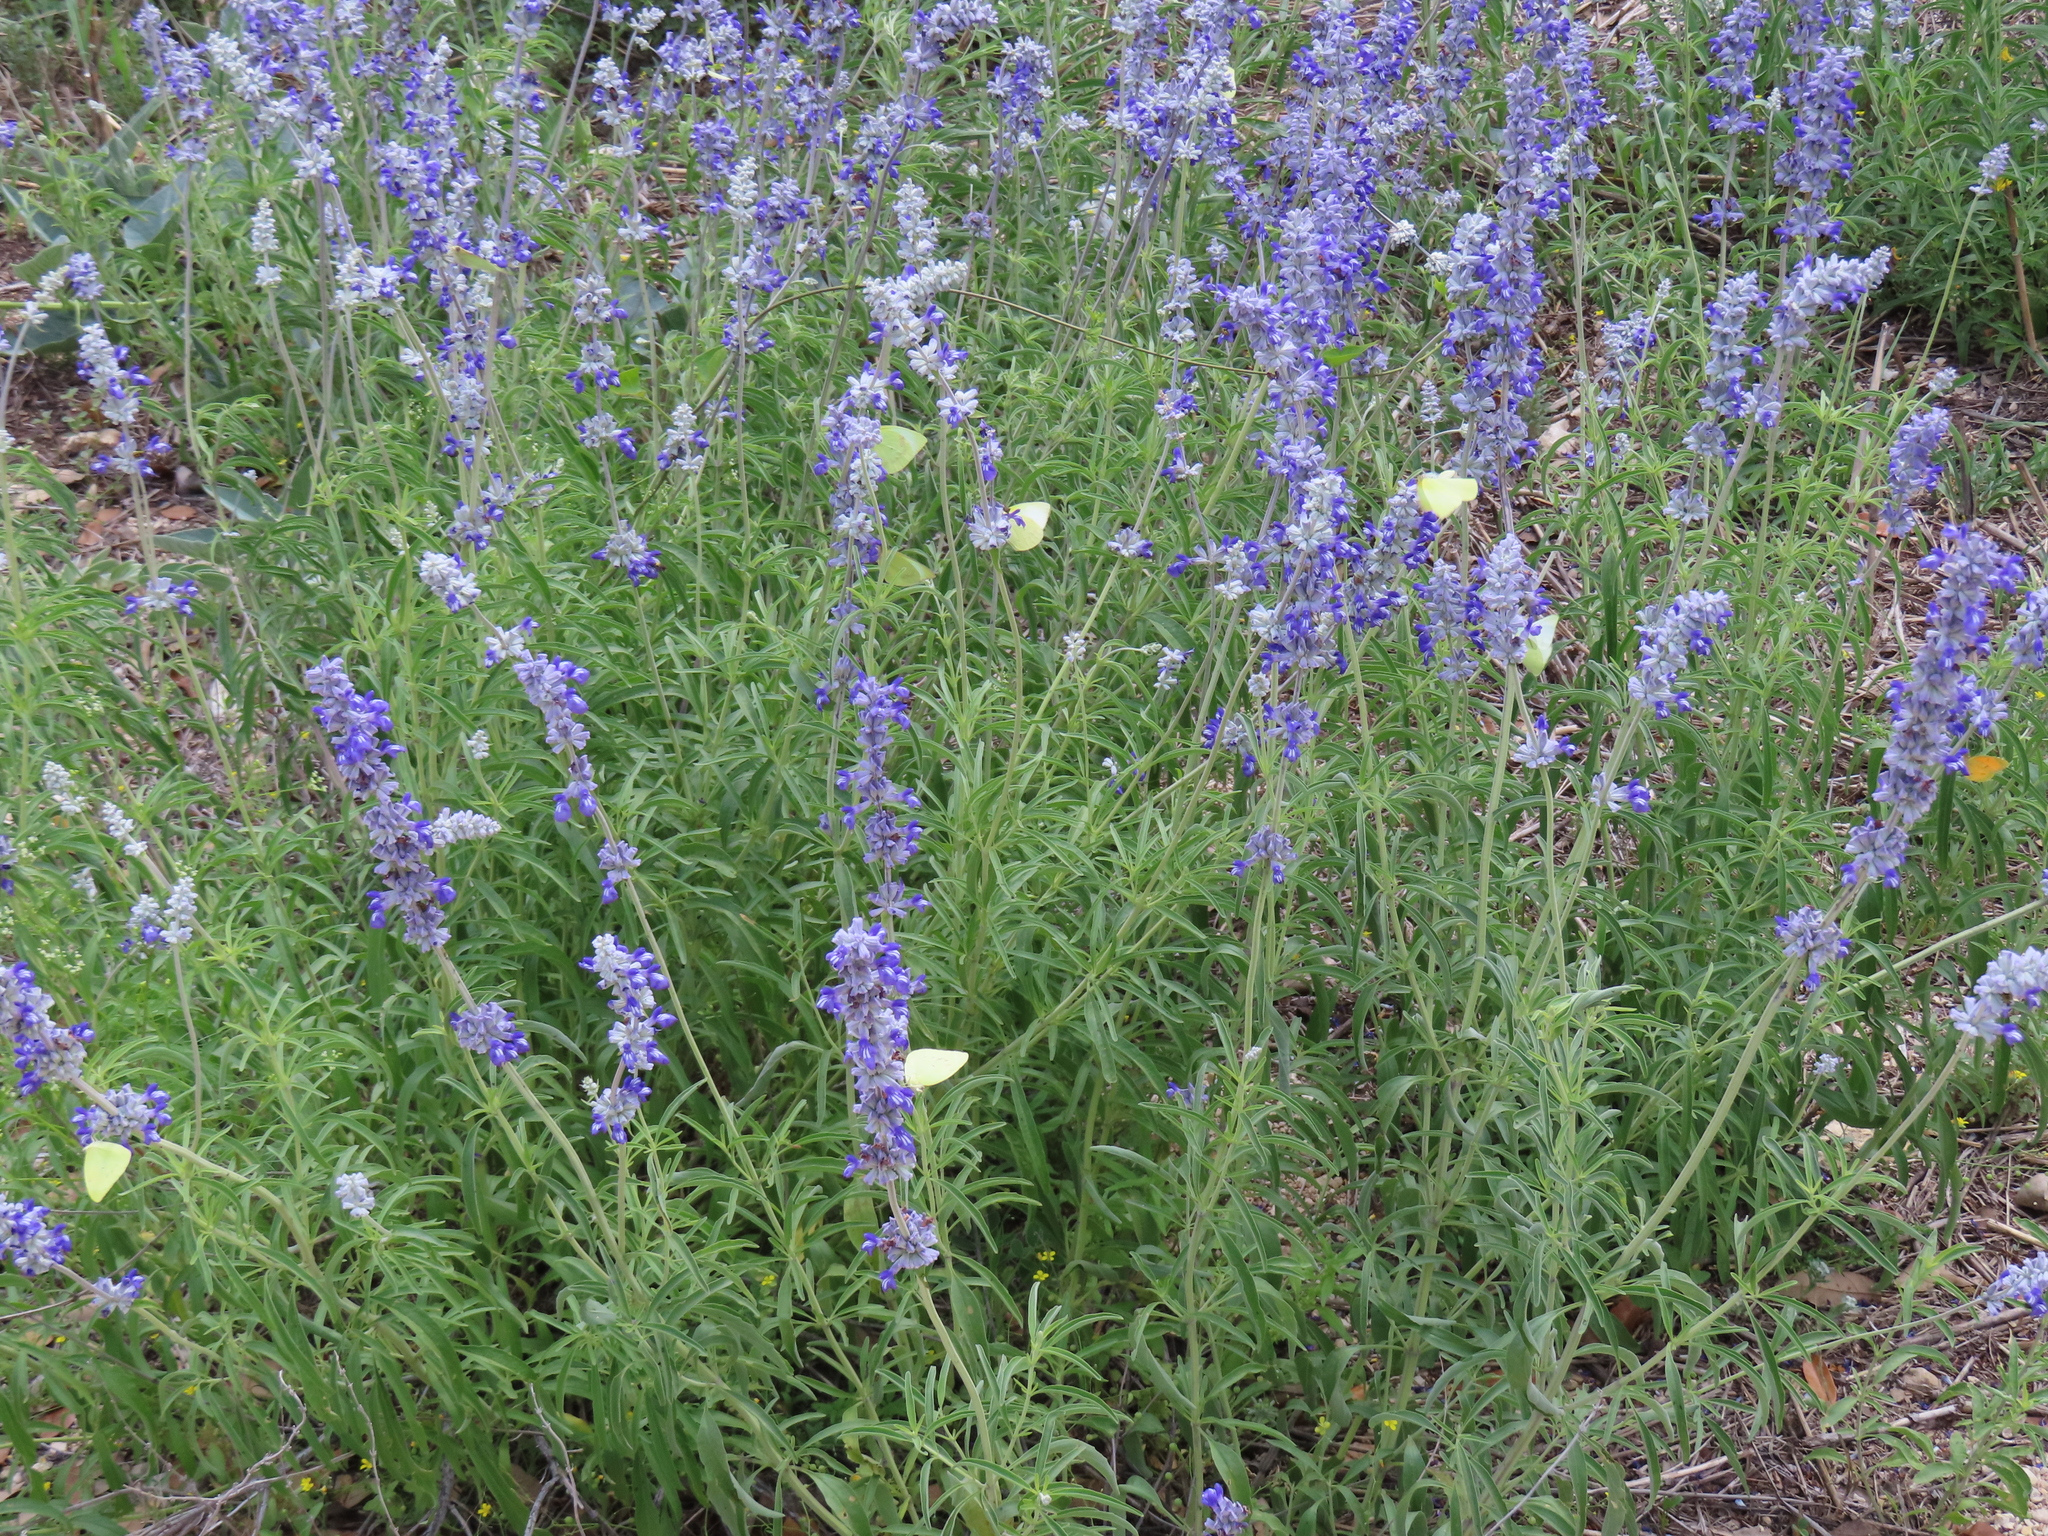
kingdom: Animalia
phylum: Arthropoda
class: Insecta
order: Lepidoptera
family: Pieridae
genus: Kricogonia
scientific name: Kricogonia lyside
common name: Guayacan sulphur,
